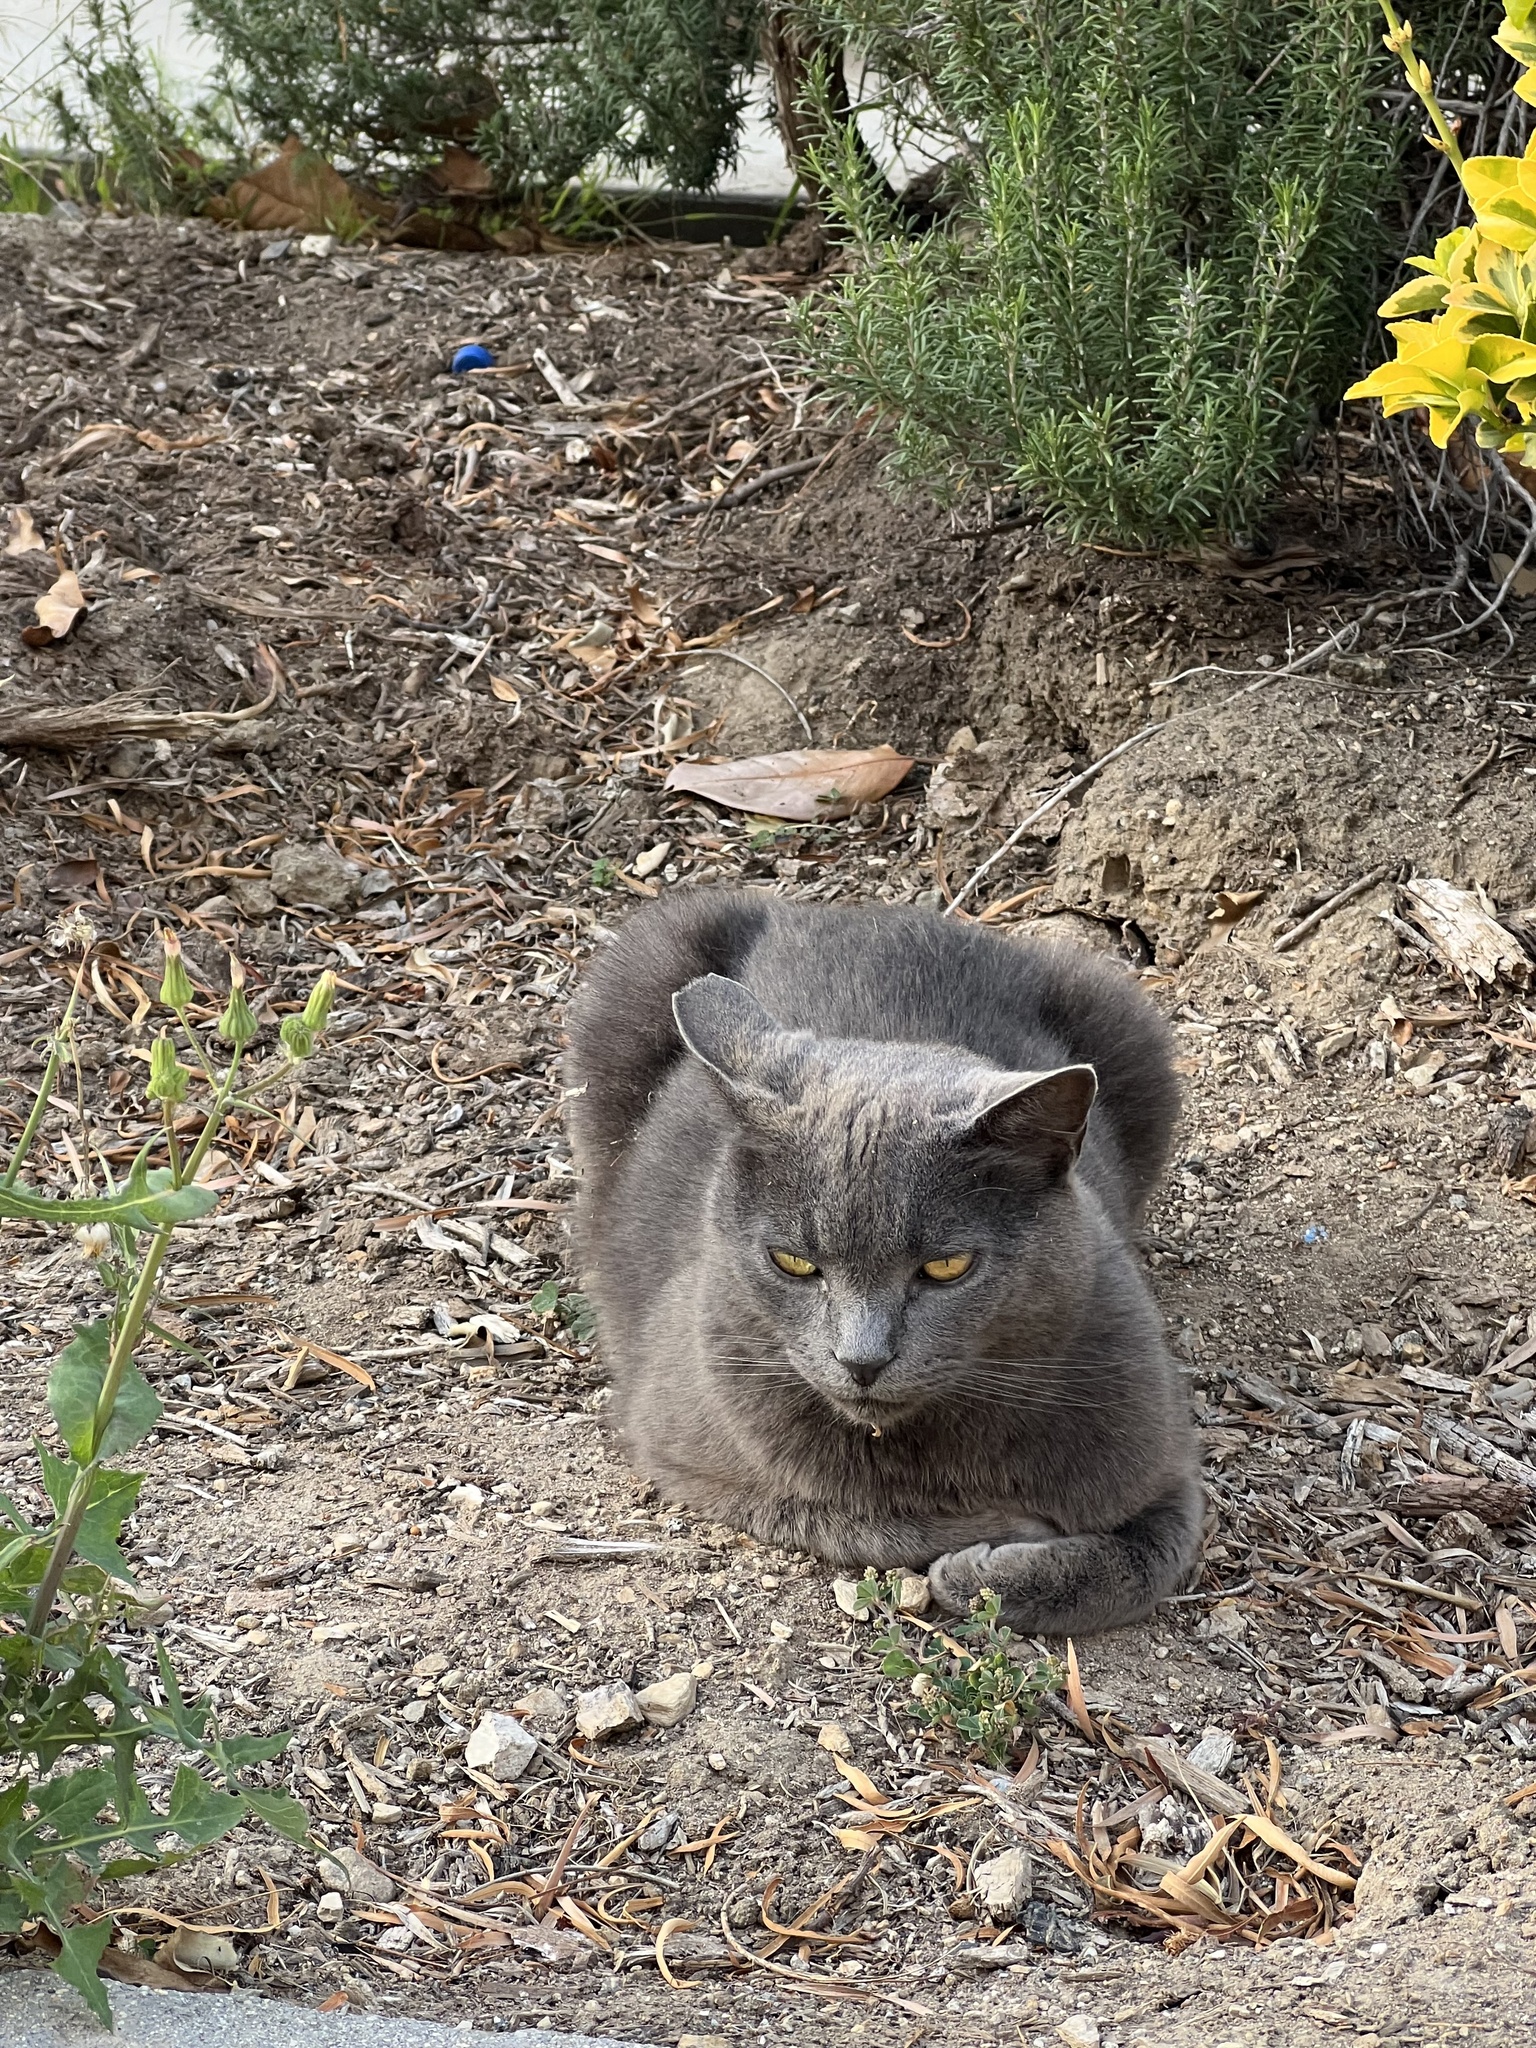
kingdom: Animalia
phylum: Chordata
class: Mammalia
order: Carnivora
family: Felidae
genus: Felis
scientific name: Felis catus
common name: Domestic cat
